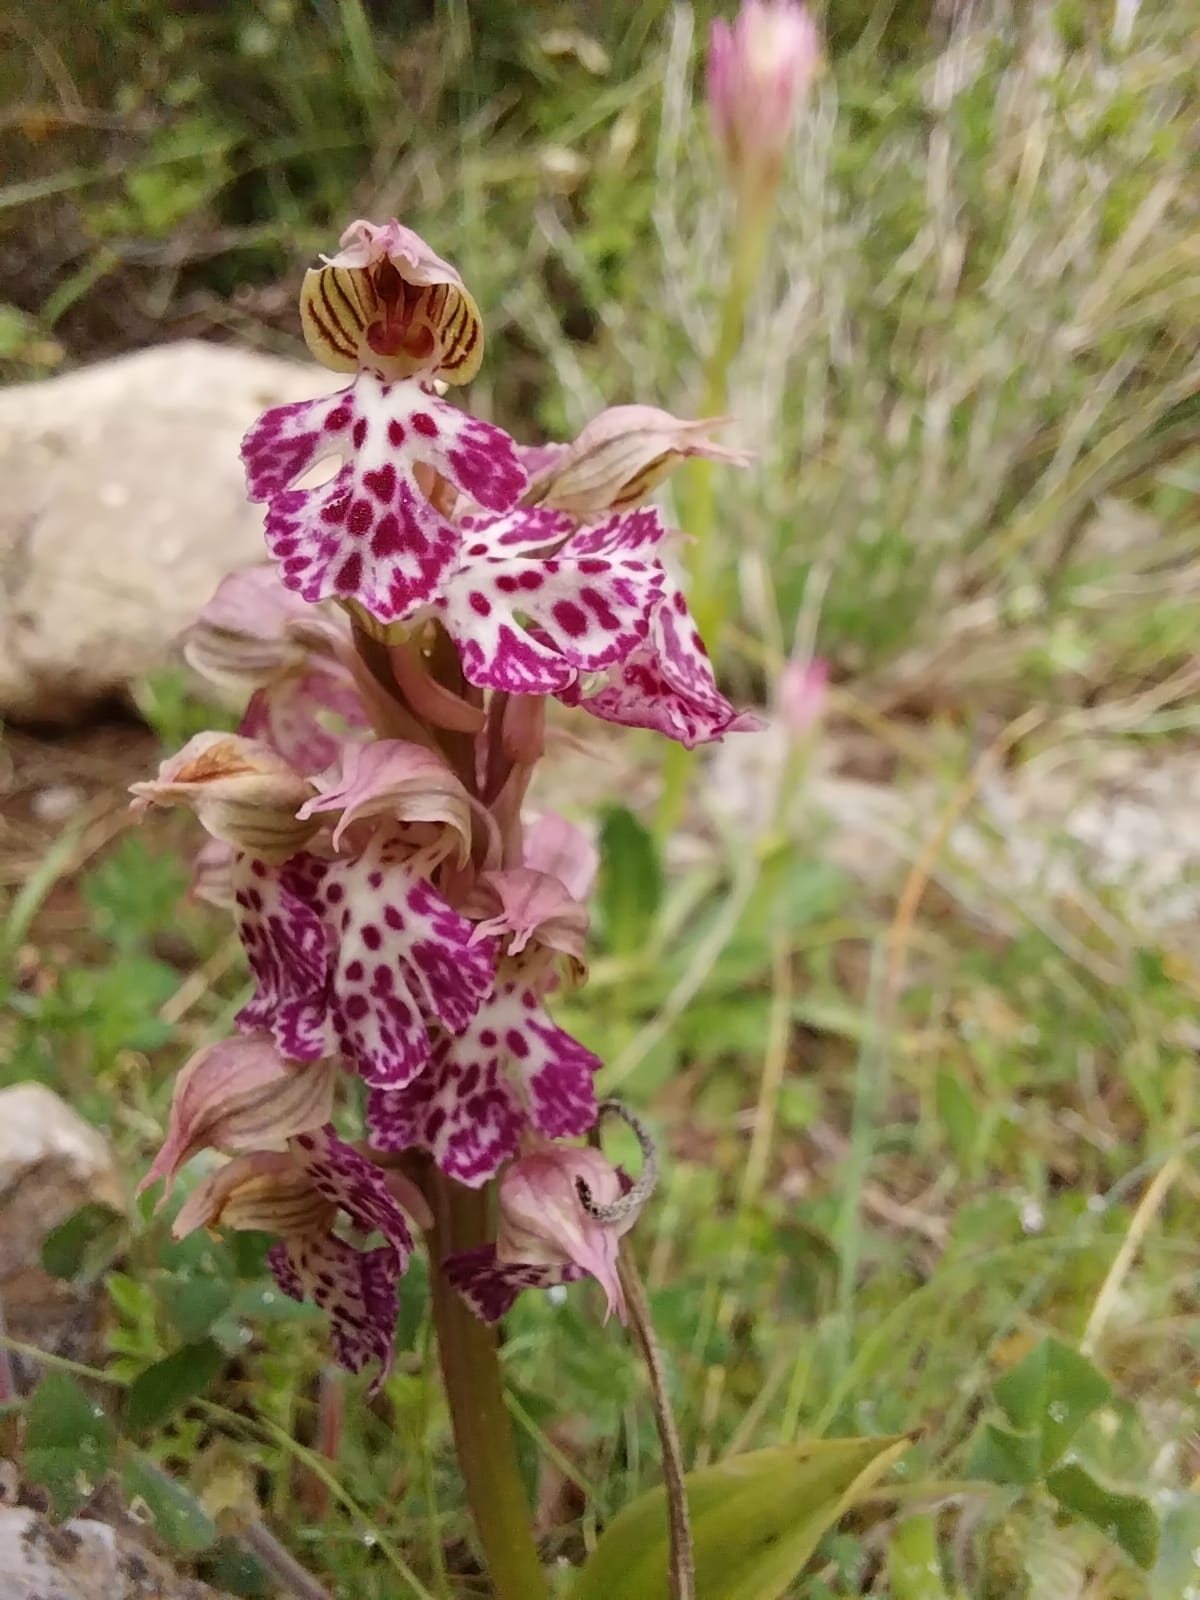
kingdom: Plantae
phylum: Tracheophyta
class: Liliopsida
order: Asparagales
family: Orchidaceae
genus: Neotinea
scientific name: Neotinea lactea
